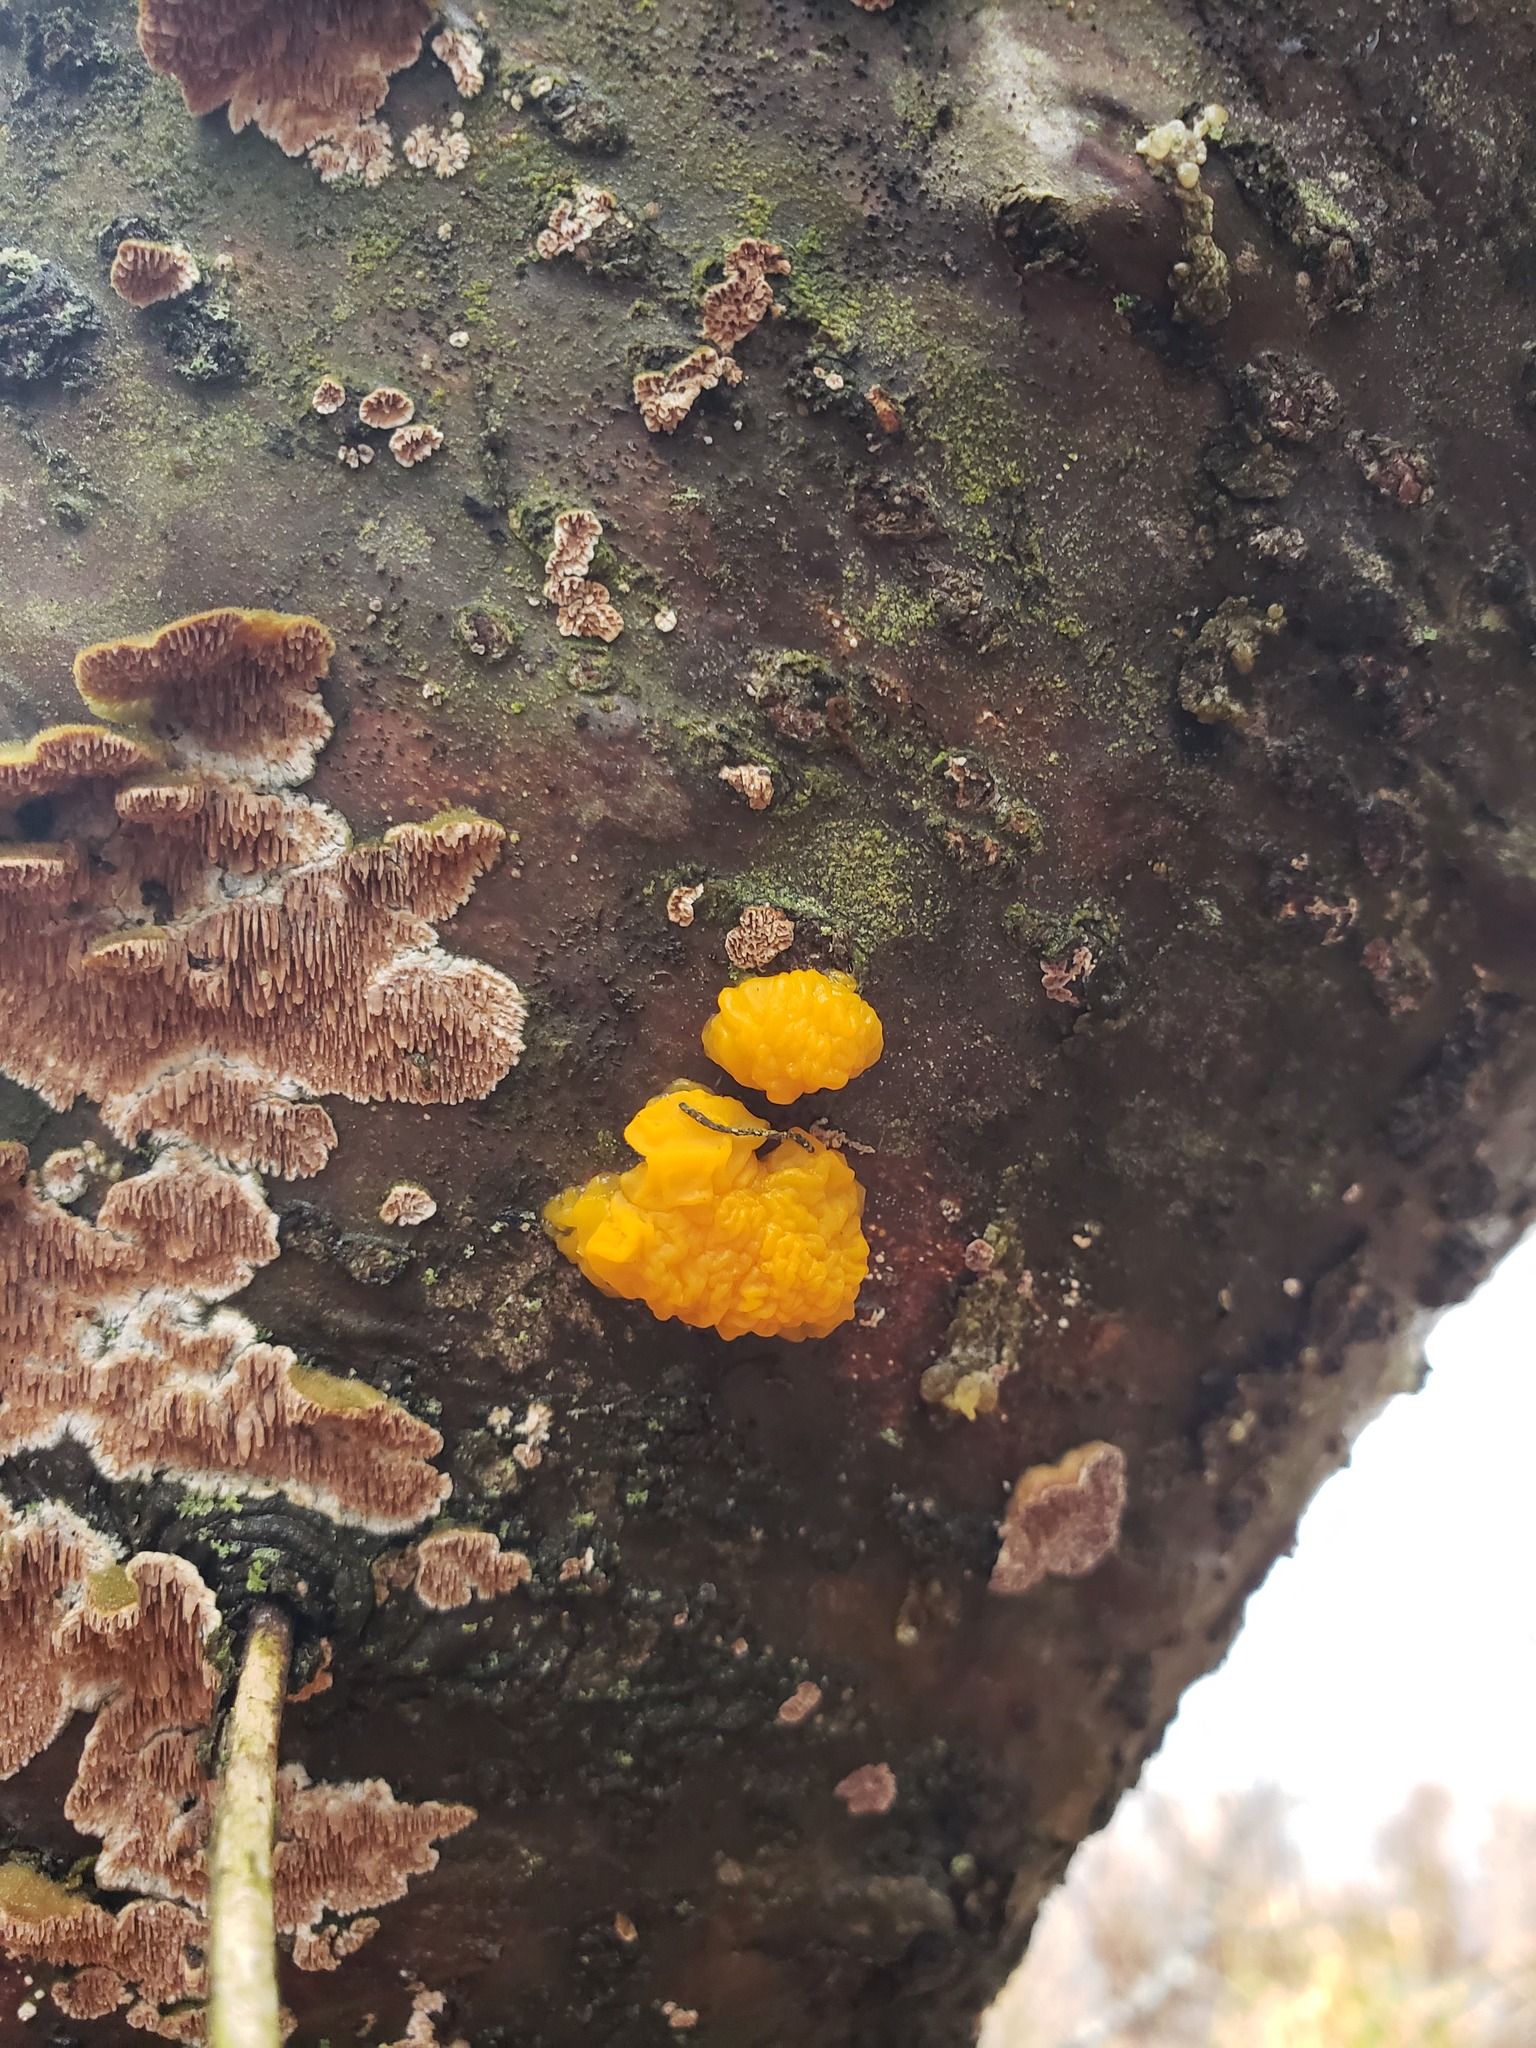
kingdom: Fungi
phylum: Basidiomycota
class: Dacrymycetes
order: Dacrymycetales
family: Dacrymycetaceae
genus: Dacrymyces
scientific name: Dacrymyces chrysospermus
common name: Orange jelly spot
